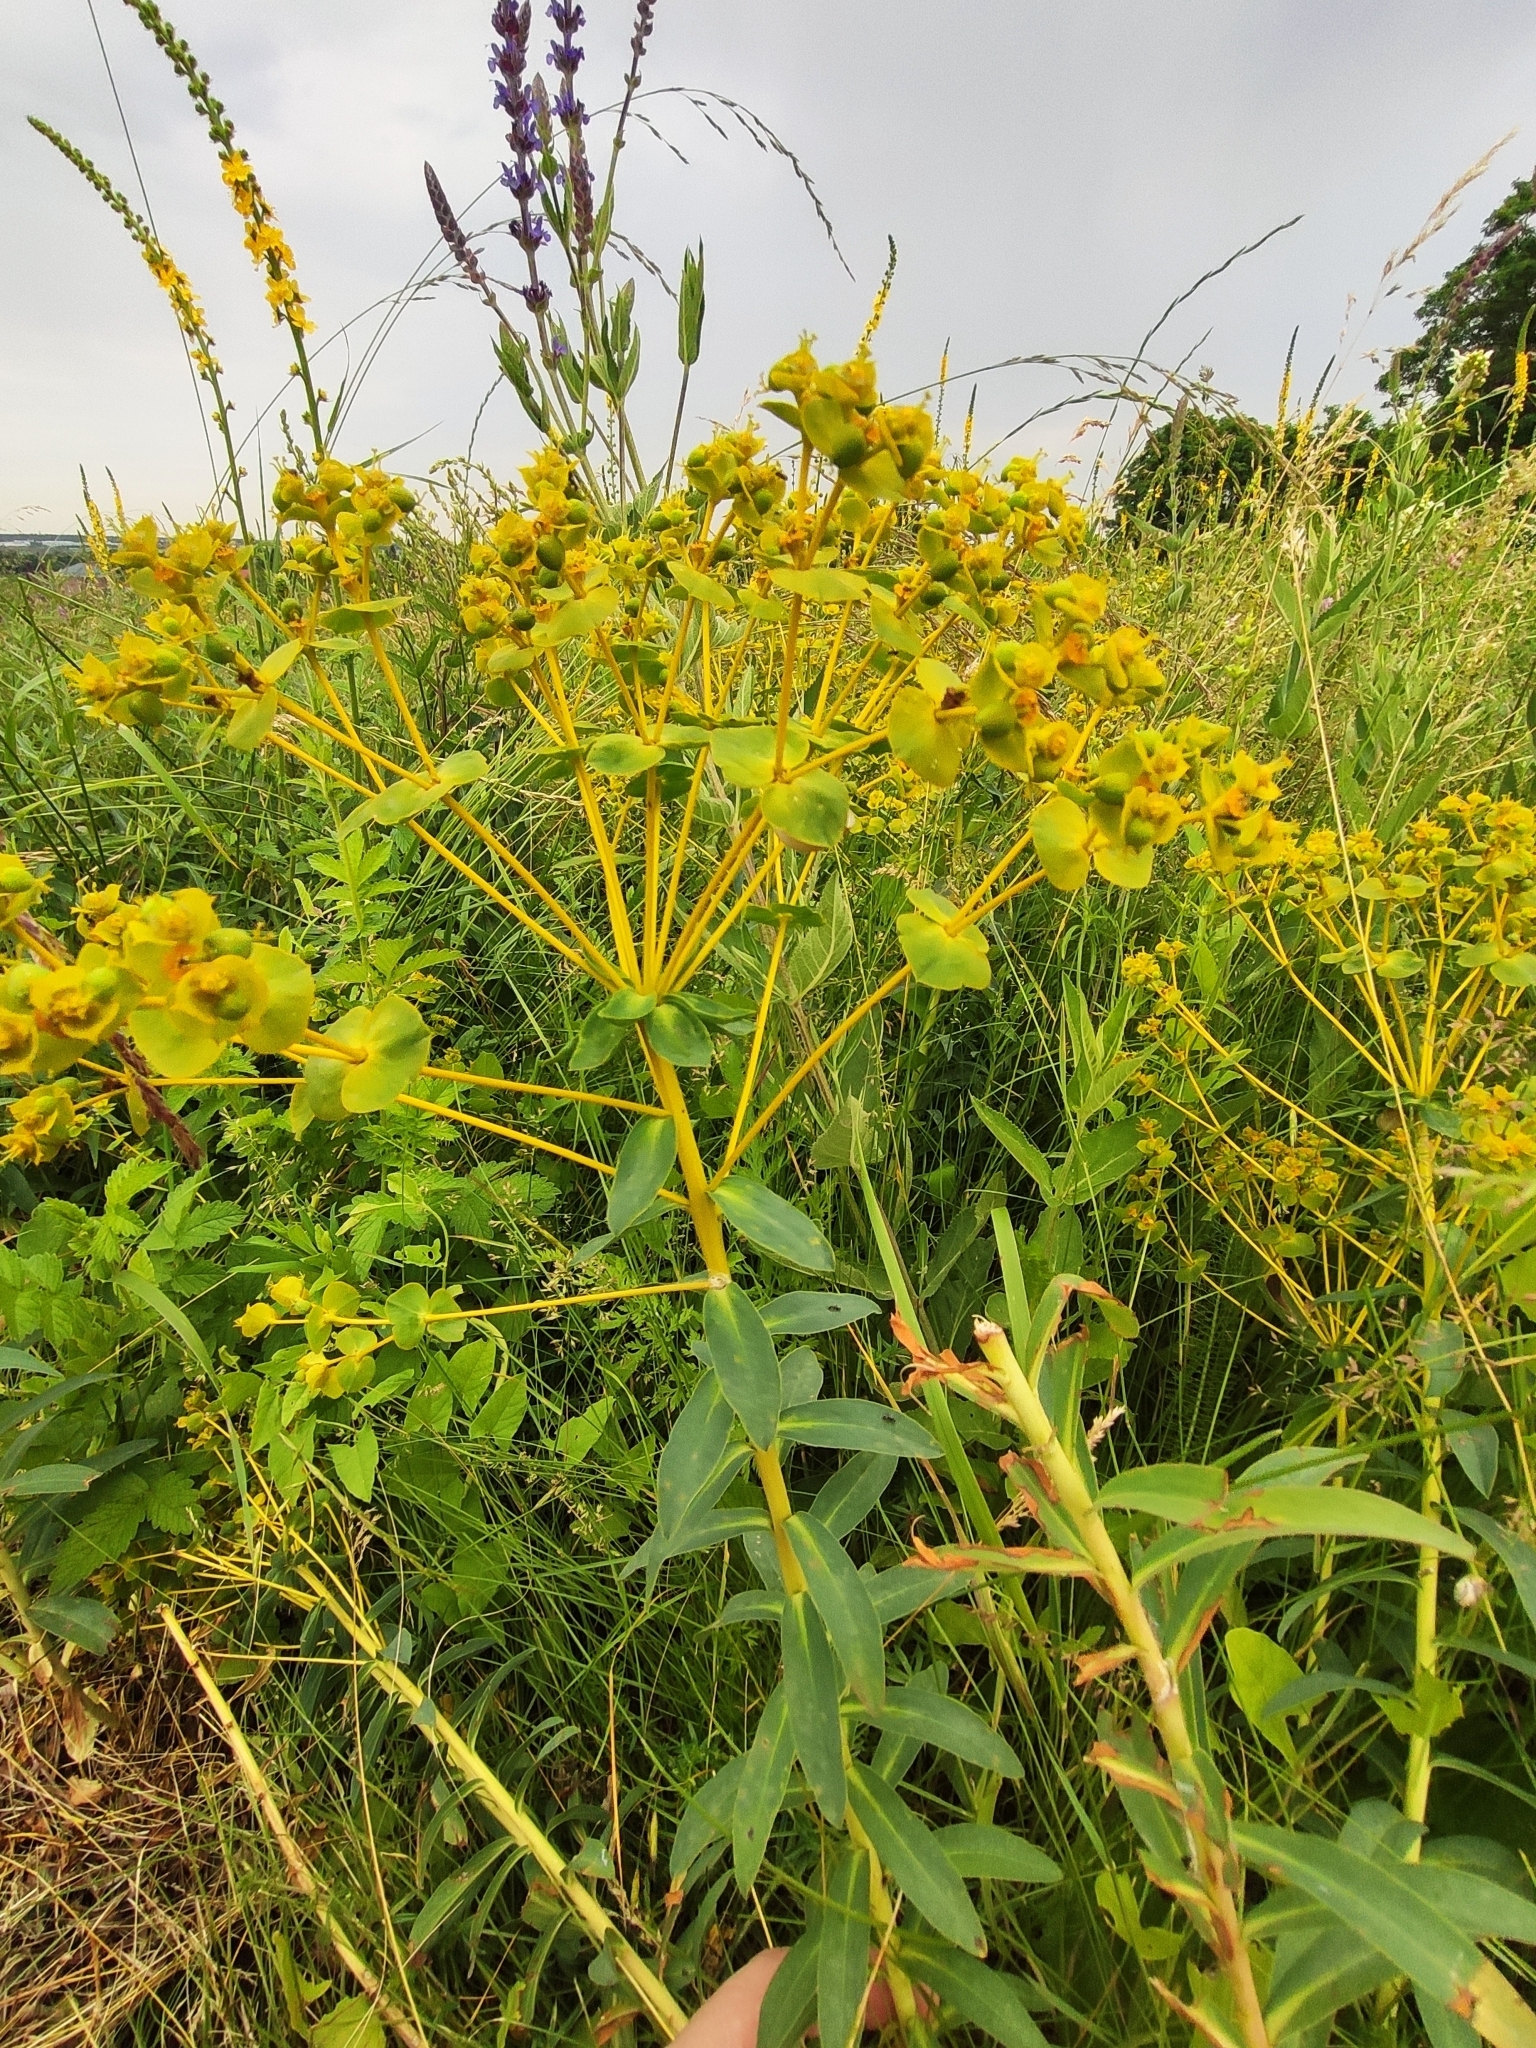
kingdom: Plantae
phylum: Tracheophyta
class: Magnoliopsida
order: Malpighiales
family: Euphorbiaceae
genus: Euphorbia
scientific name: Euphorbia stepposa
